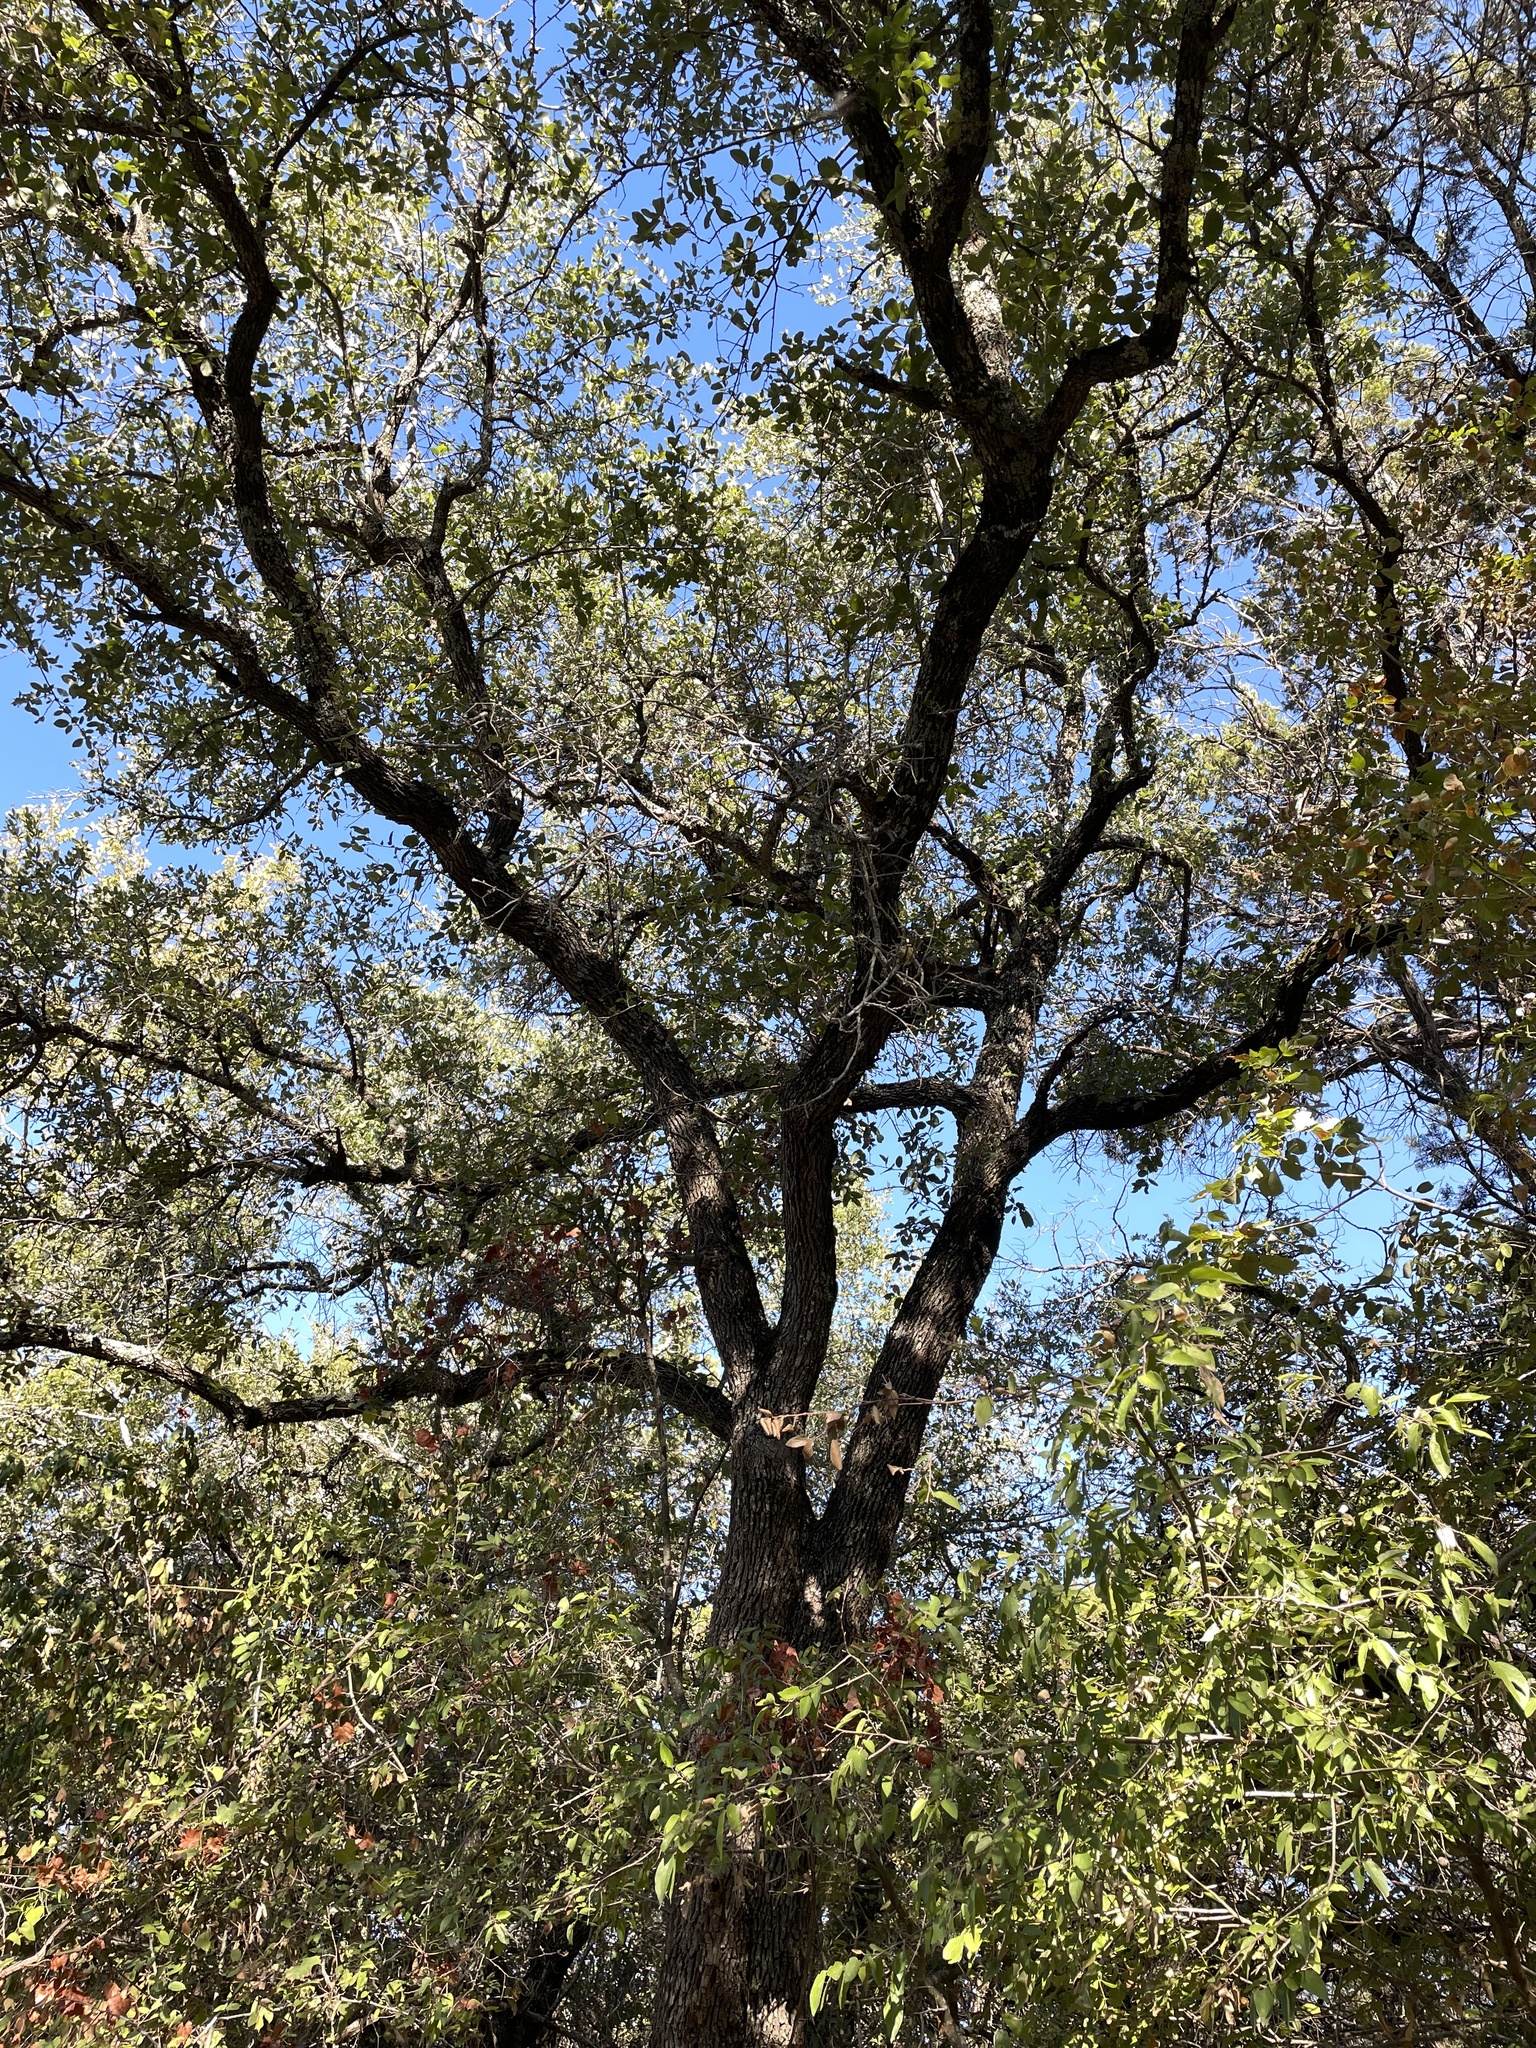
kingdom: Plantae
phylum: Tracheophyta
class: Magnoliopsida
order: Fagales
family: Fagaceae
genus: Quercus
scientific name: Quercus fusiformis
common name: Texas live oak
